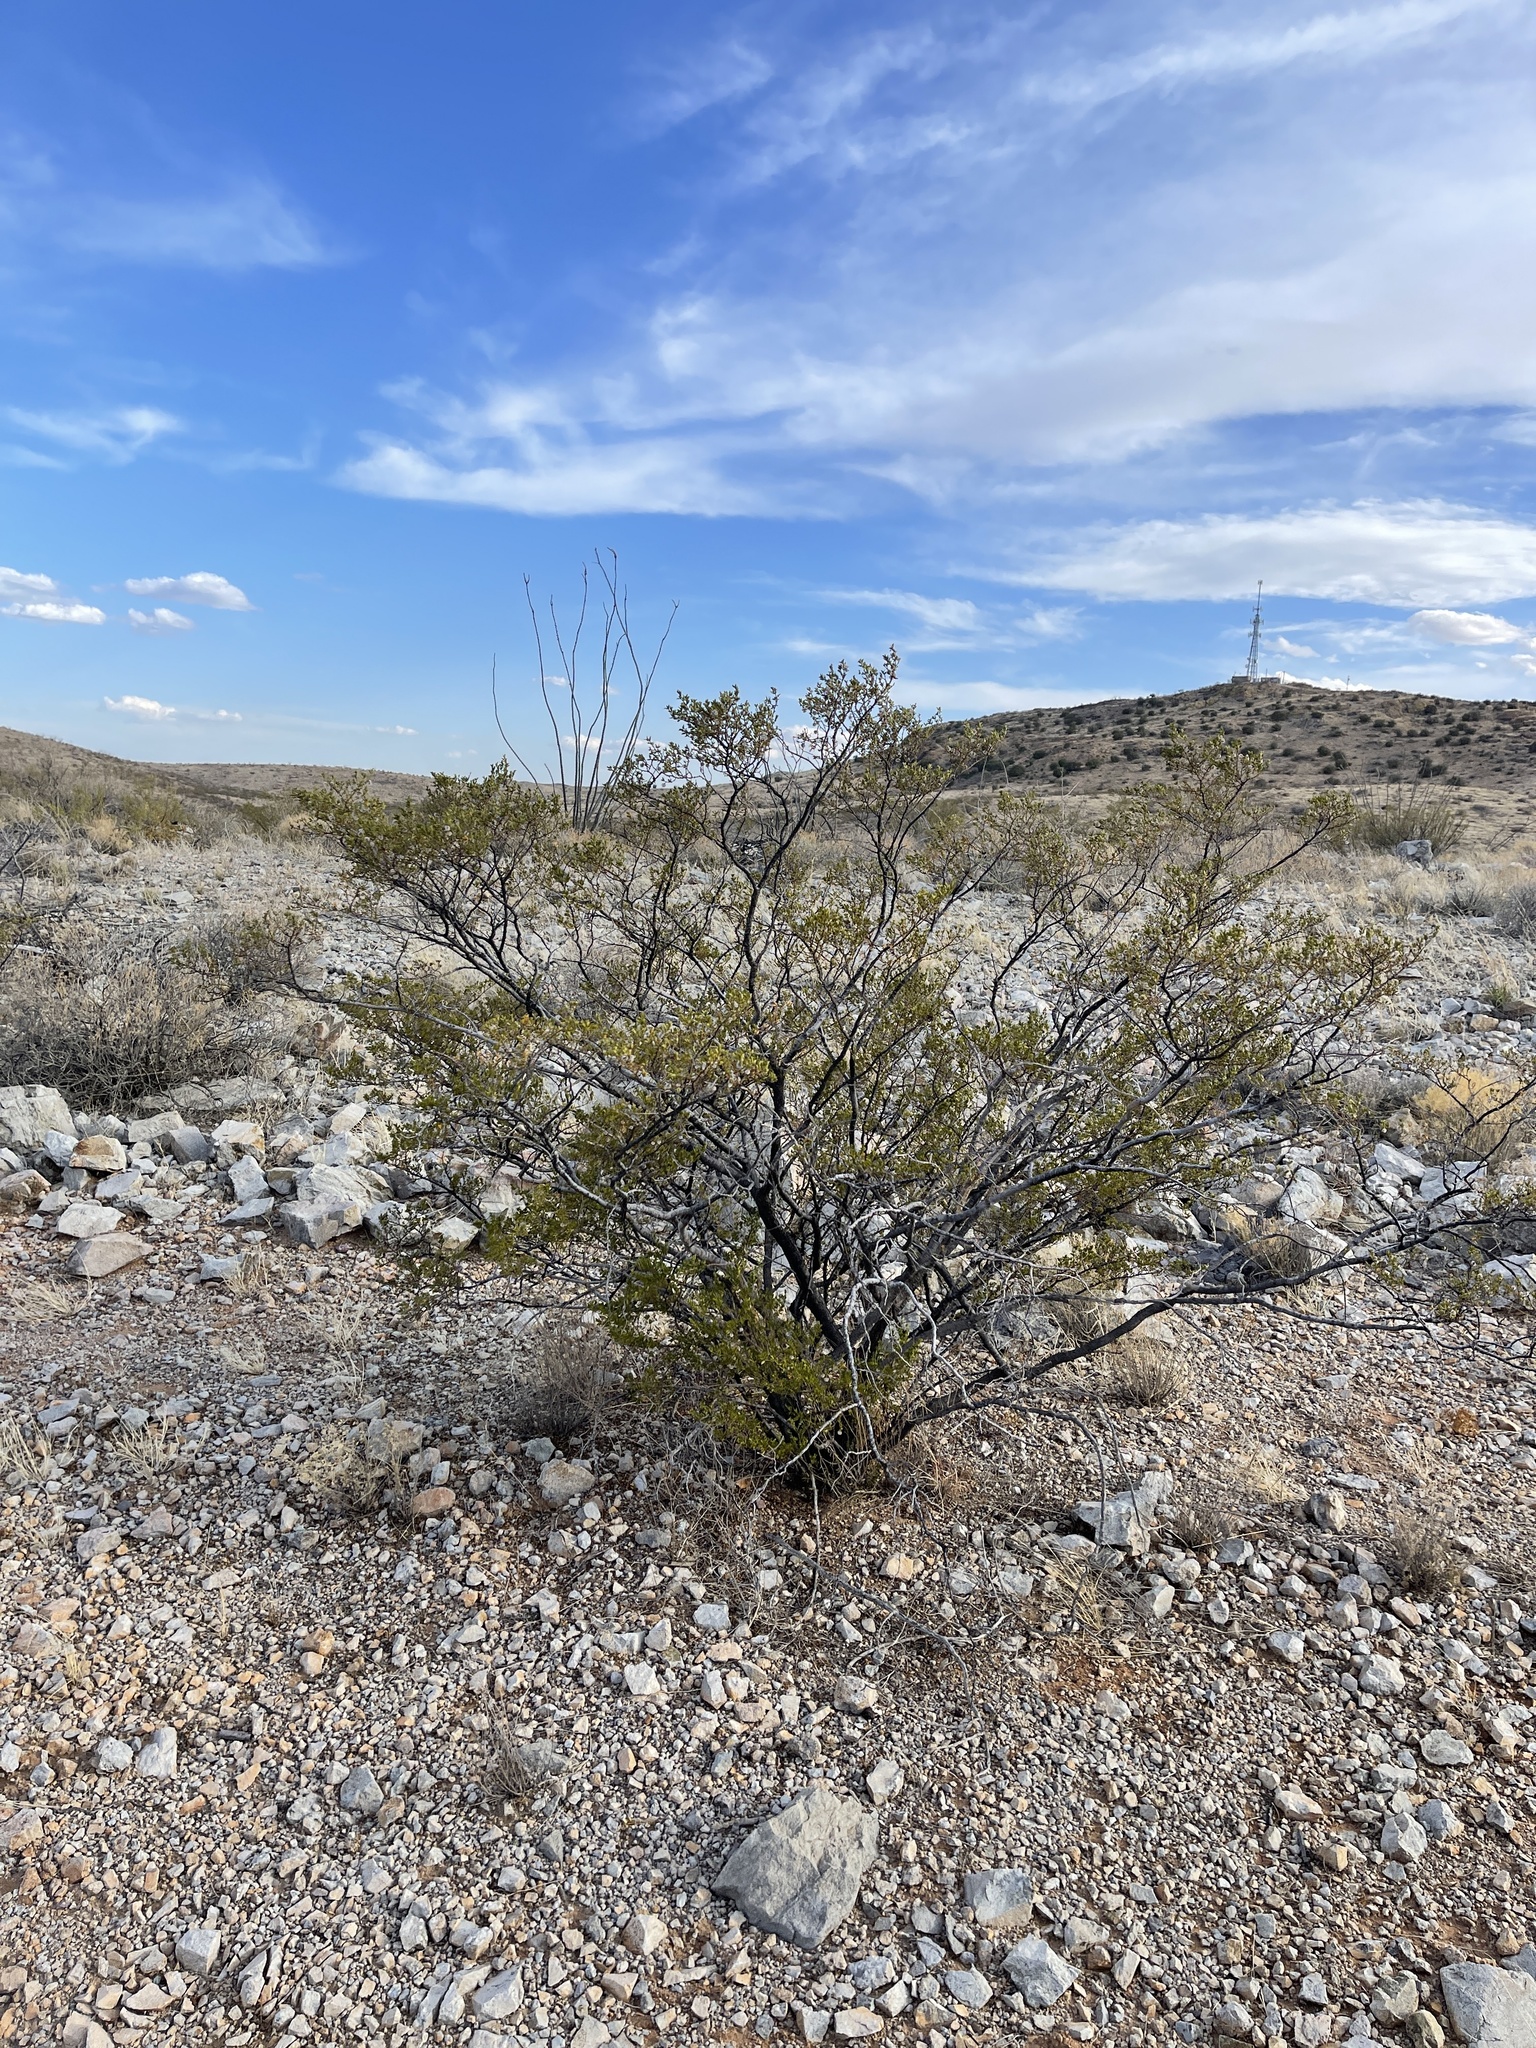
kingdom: Plantae
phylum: Tracheophyta
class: Magnoliopsida
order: Zygophyllales
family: Zygophyllaceae
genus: Larrea
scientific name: Larrea tridentata
